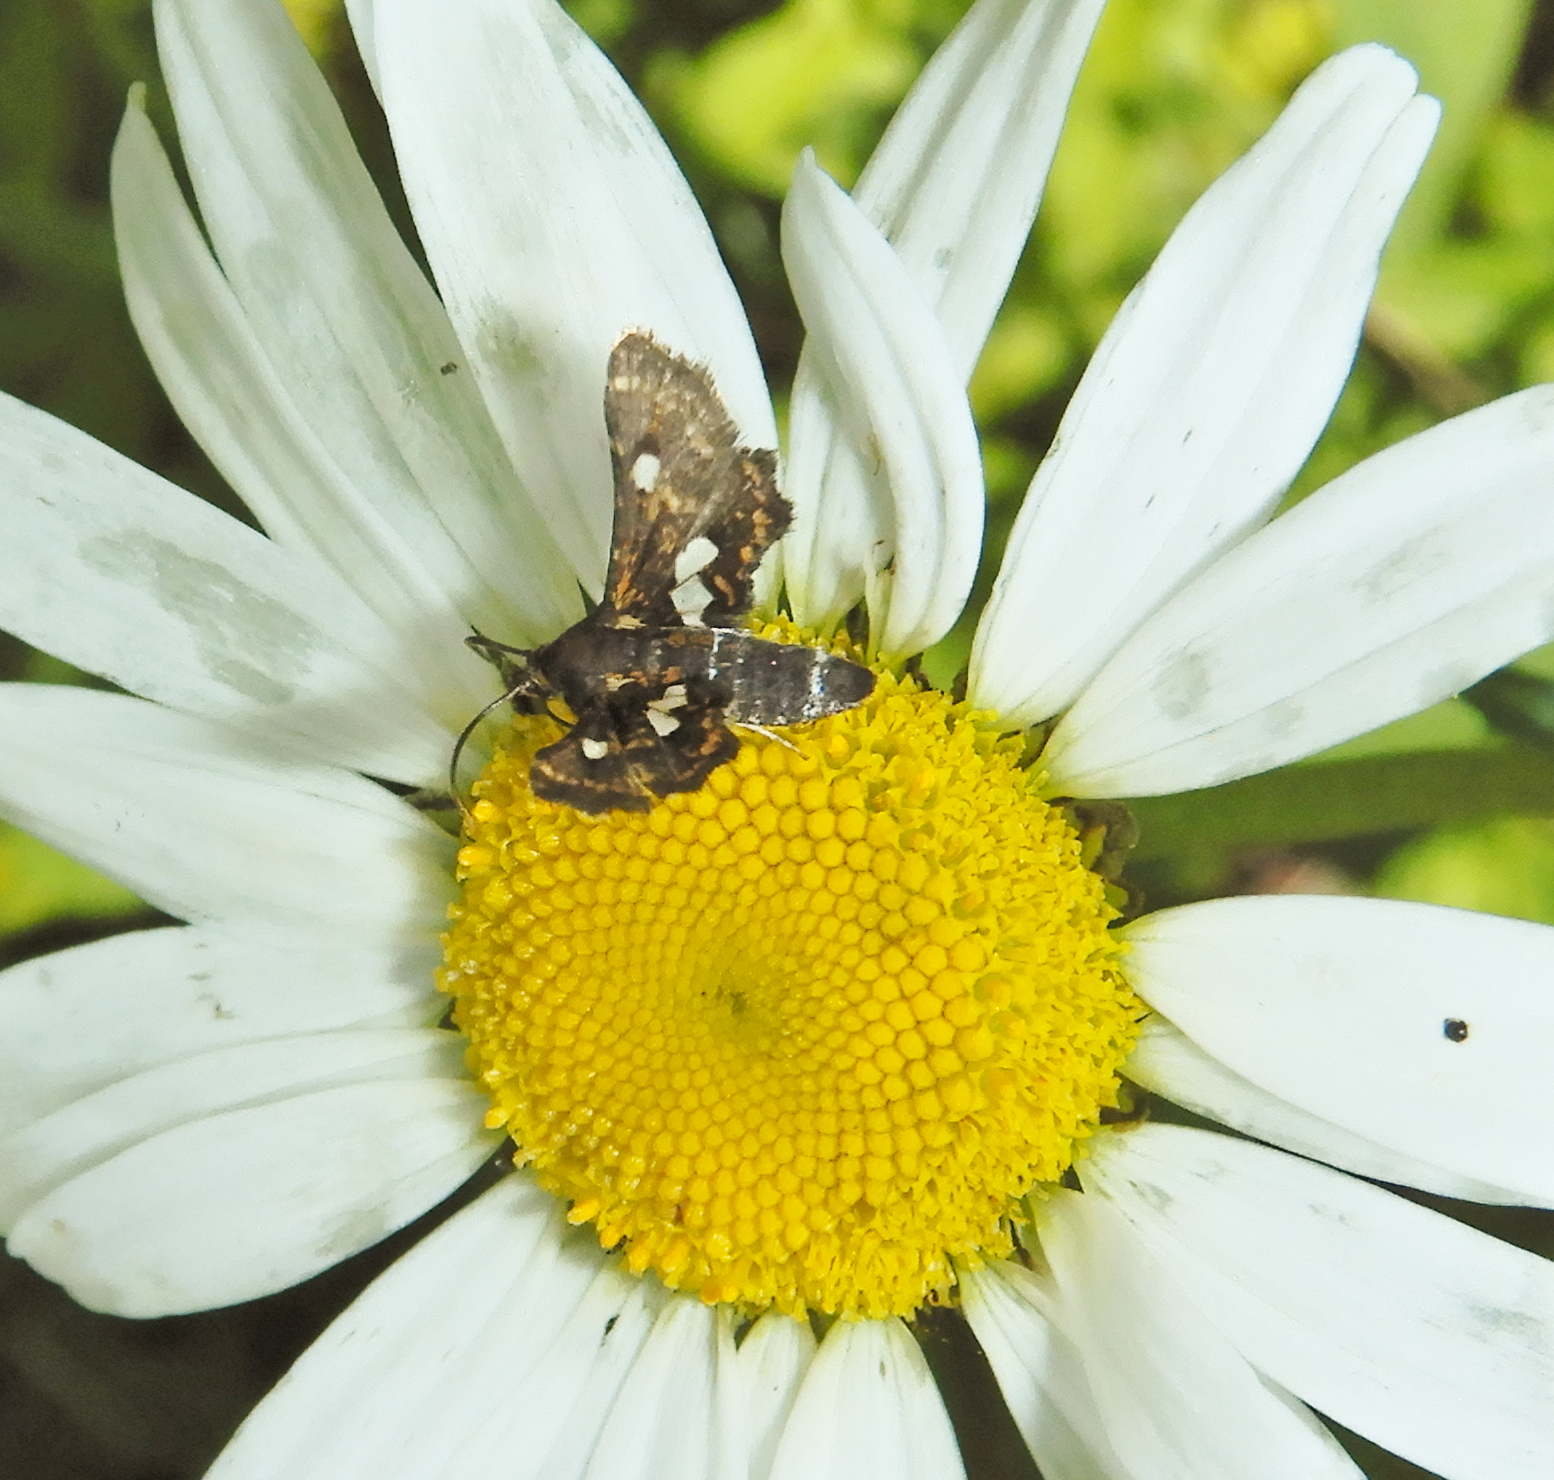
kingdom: Animalia
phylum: Arthropoda
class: Insecta
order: Lepidoptera
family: Thyrididae
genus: Thyris
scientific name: Thyris maculata
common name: Spotted thyris moth
